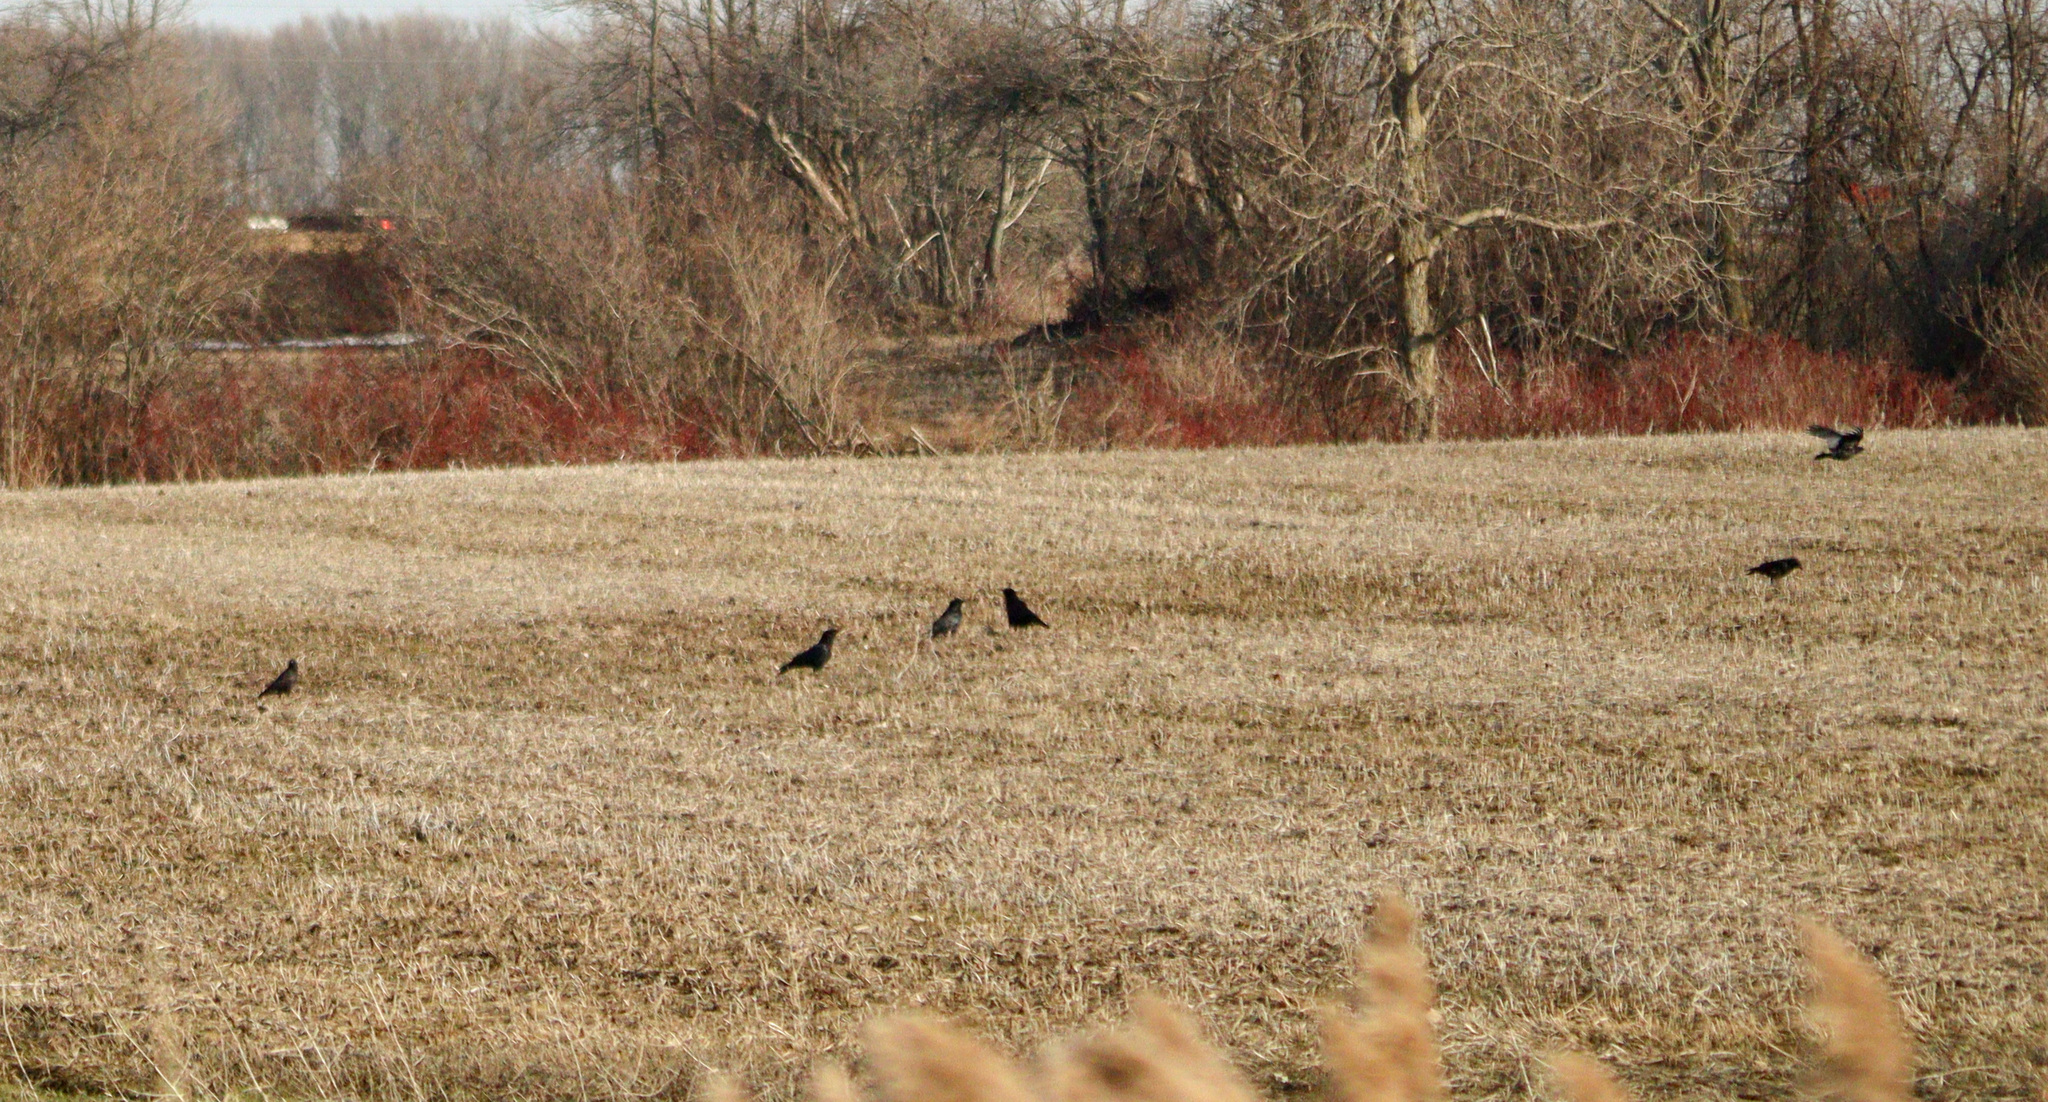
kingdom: Animalia
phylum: Chordata
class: Aves
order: Passeriformes
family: Corvidae
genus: Corvus
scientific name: Corvus brachyrhynchos
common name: American crow
